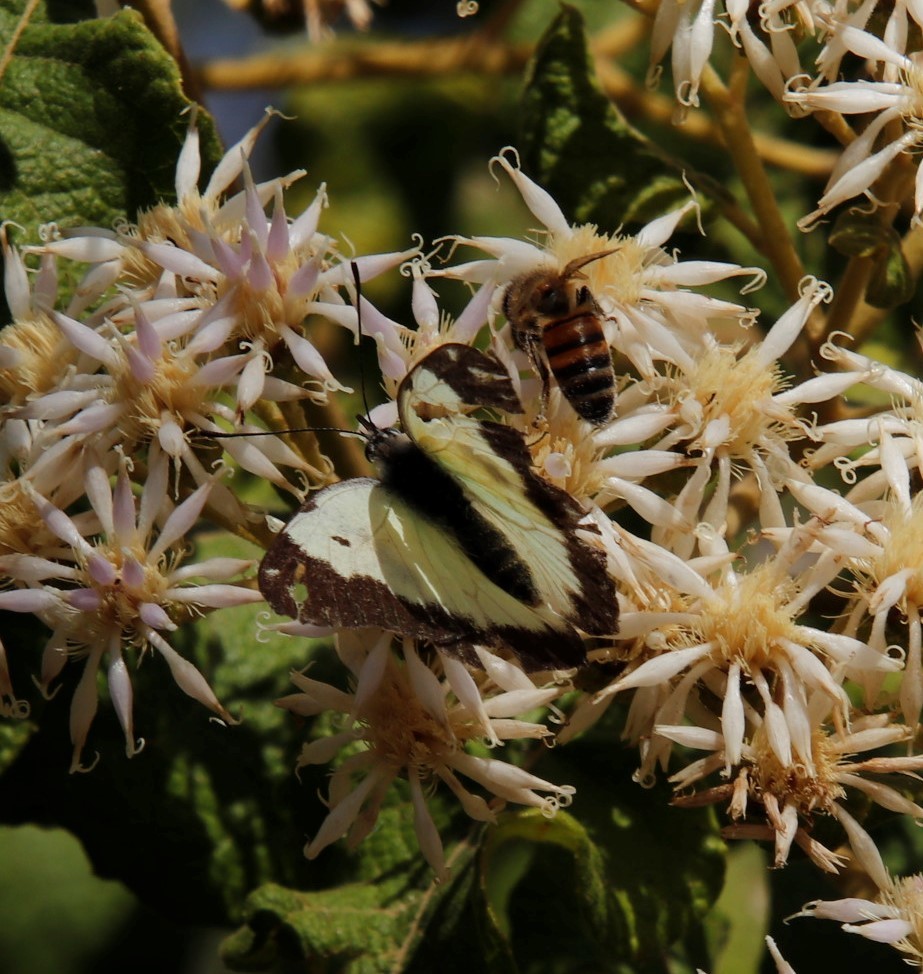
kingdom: Animalia
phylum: Arthropoda
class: Insecta
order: Lepidoptera
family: Pieridae
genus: Belenois
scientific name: Belenois creona
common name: African caper white
